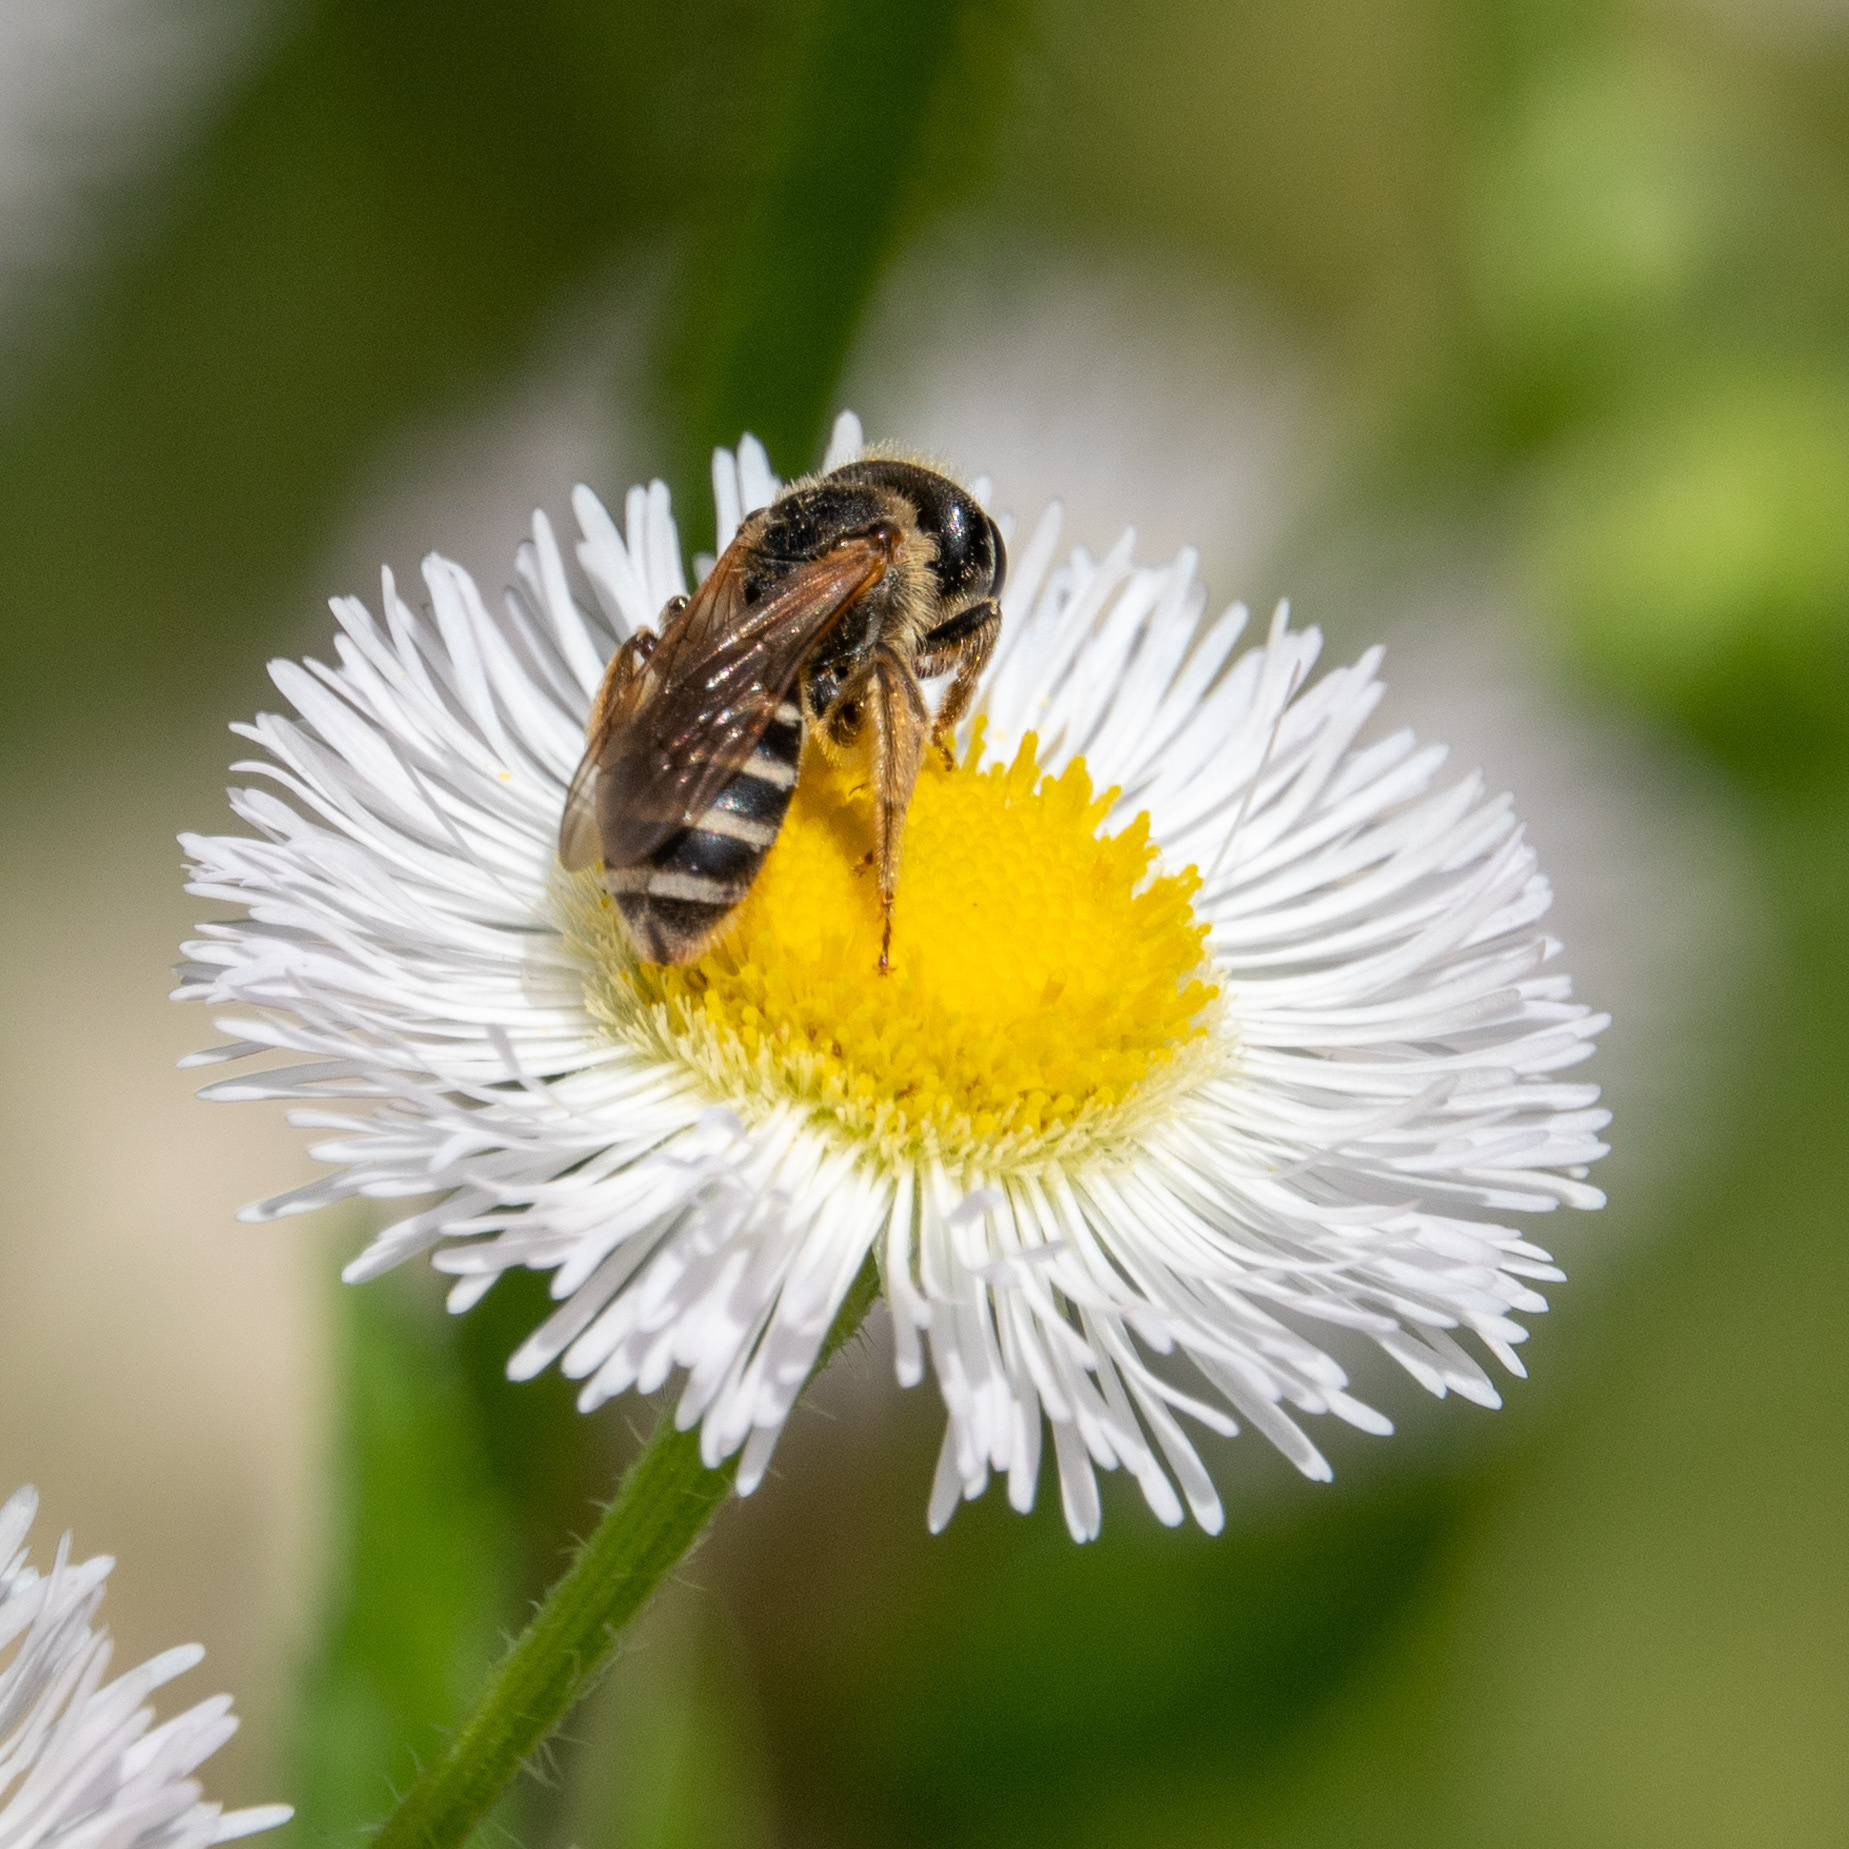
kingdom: Animalia
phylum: Arthropoda
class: Insecta
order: Hymenoptera
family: Halictidae
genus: Halictus
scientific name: Halictus ligatus
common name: Ligated furrow bee
